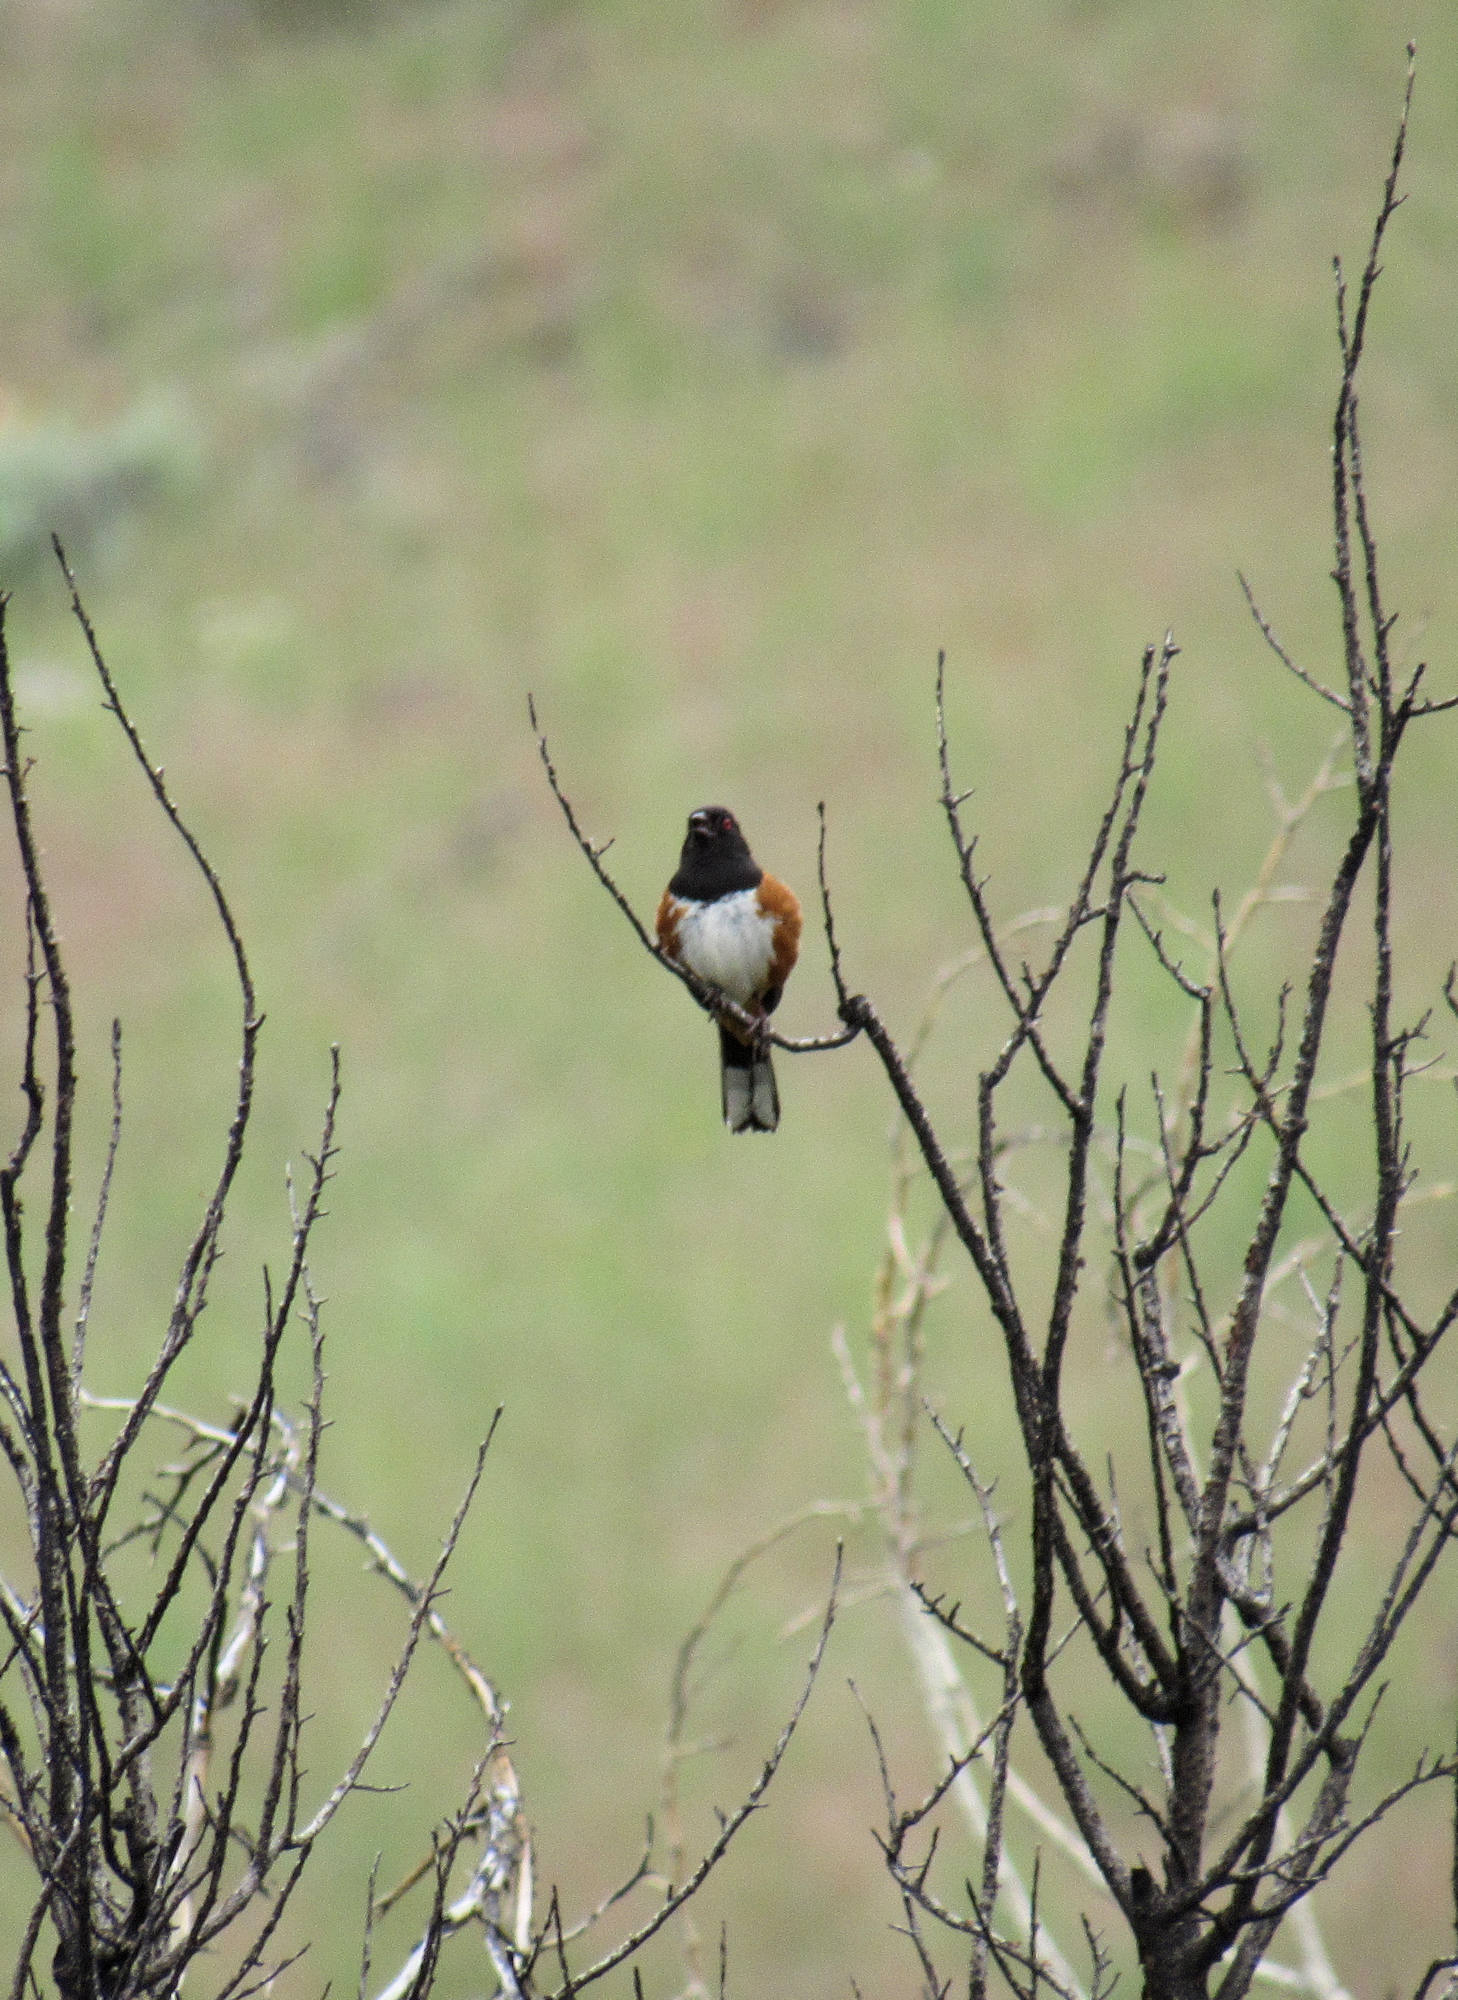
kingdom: Animalia
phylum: Chordata
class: Aves
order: Passeriformes
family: Passerellidae
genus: Pipilo
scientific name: Pipilo maculatus
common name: Spotted towhee
